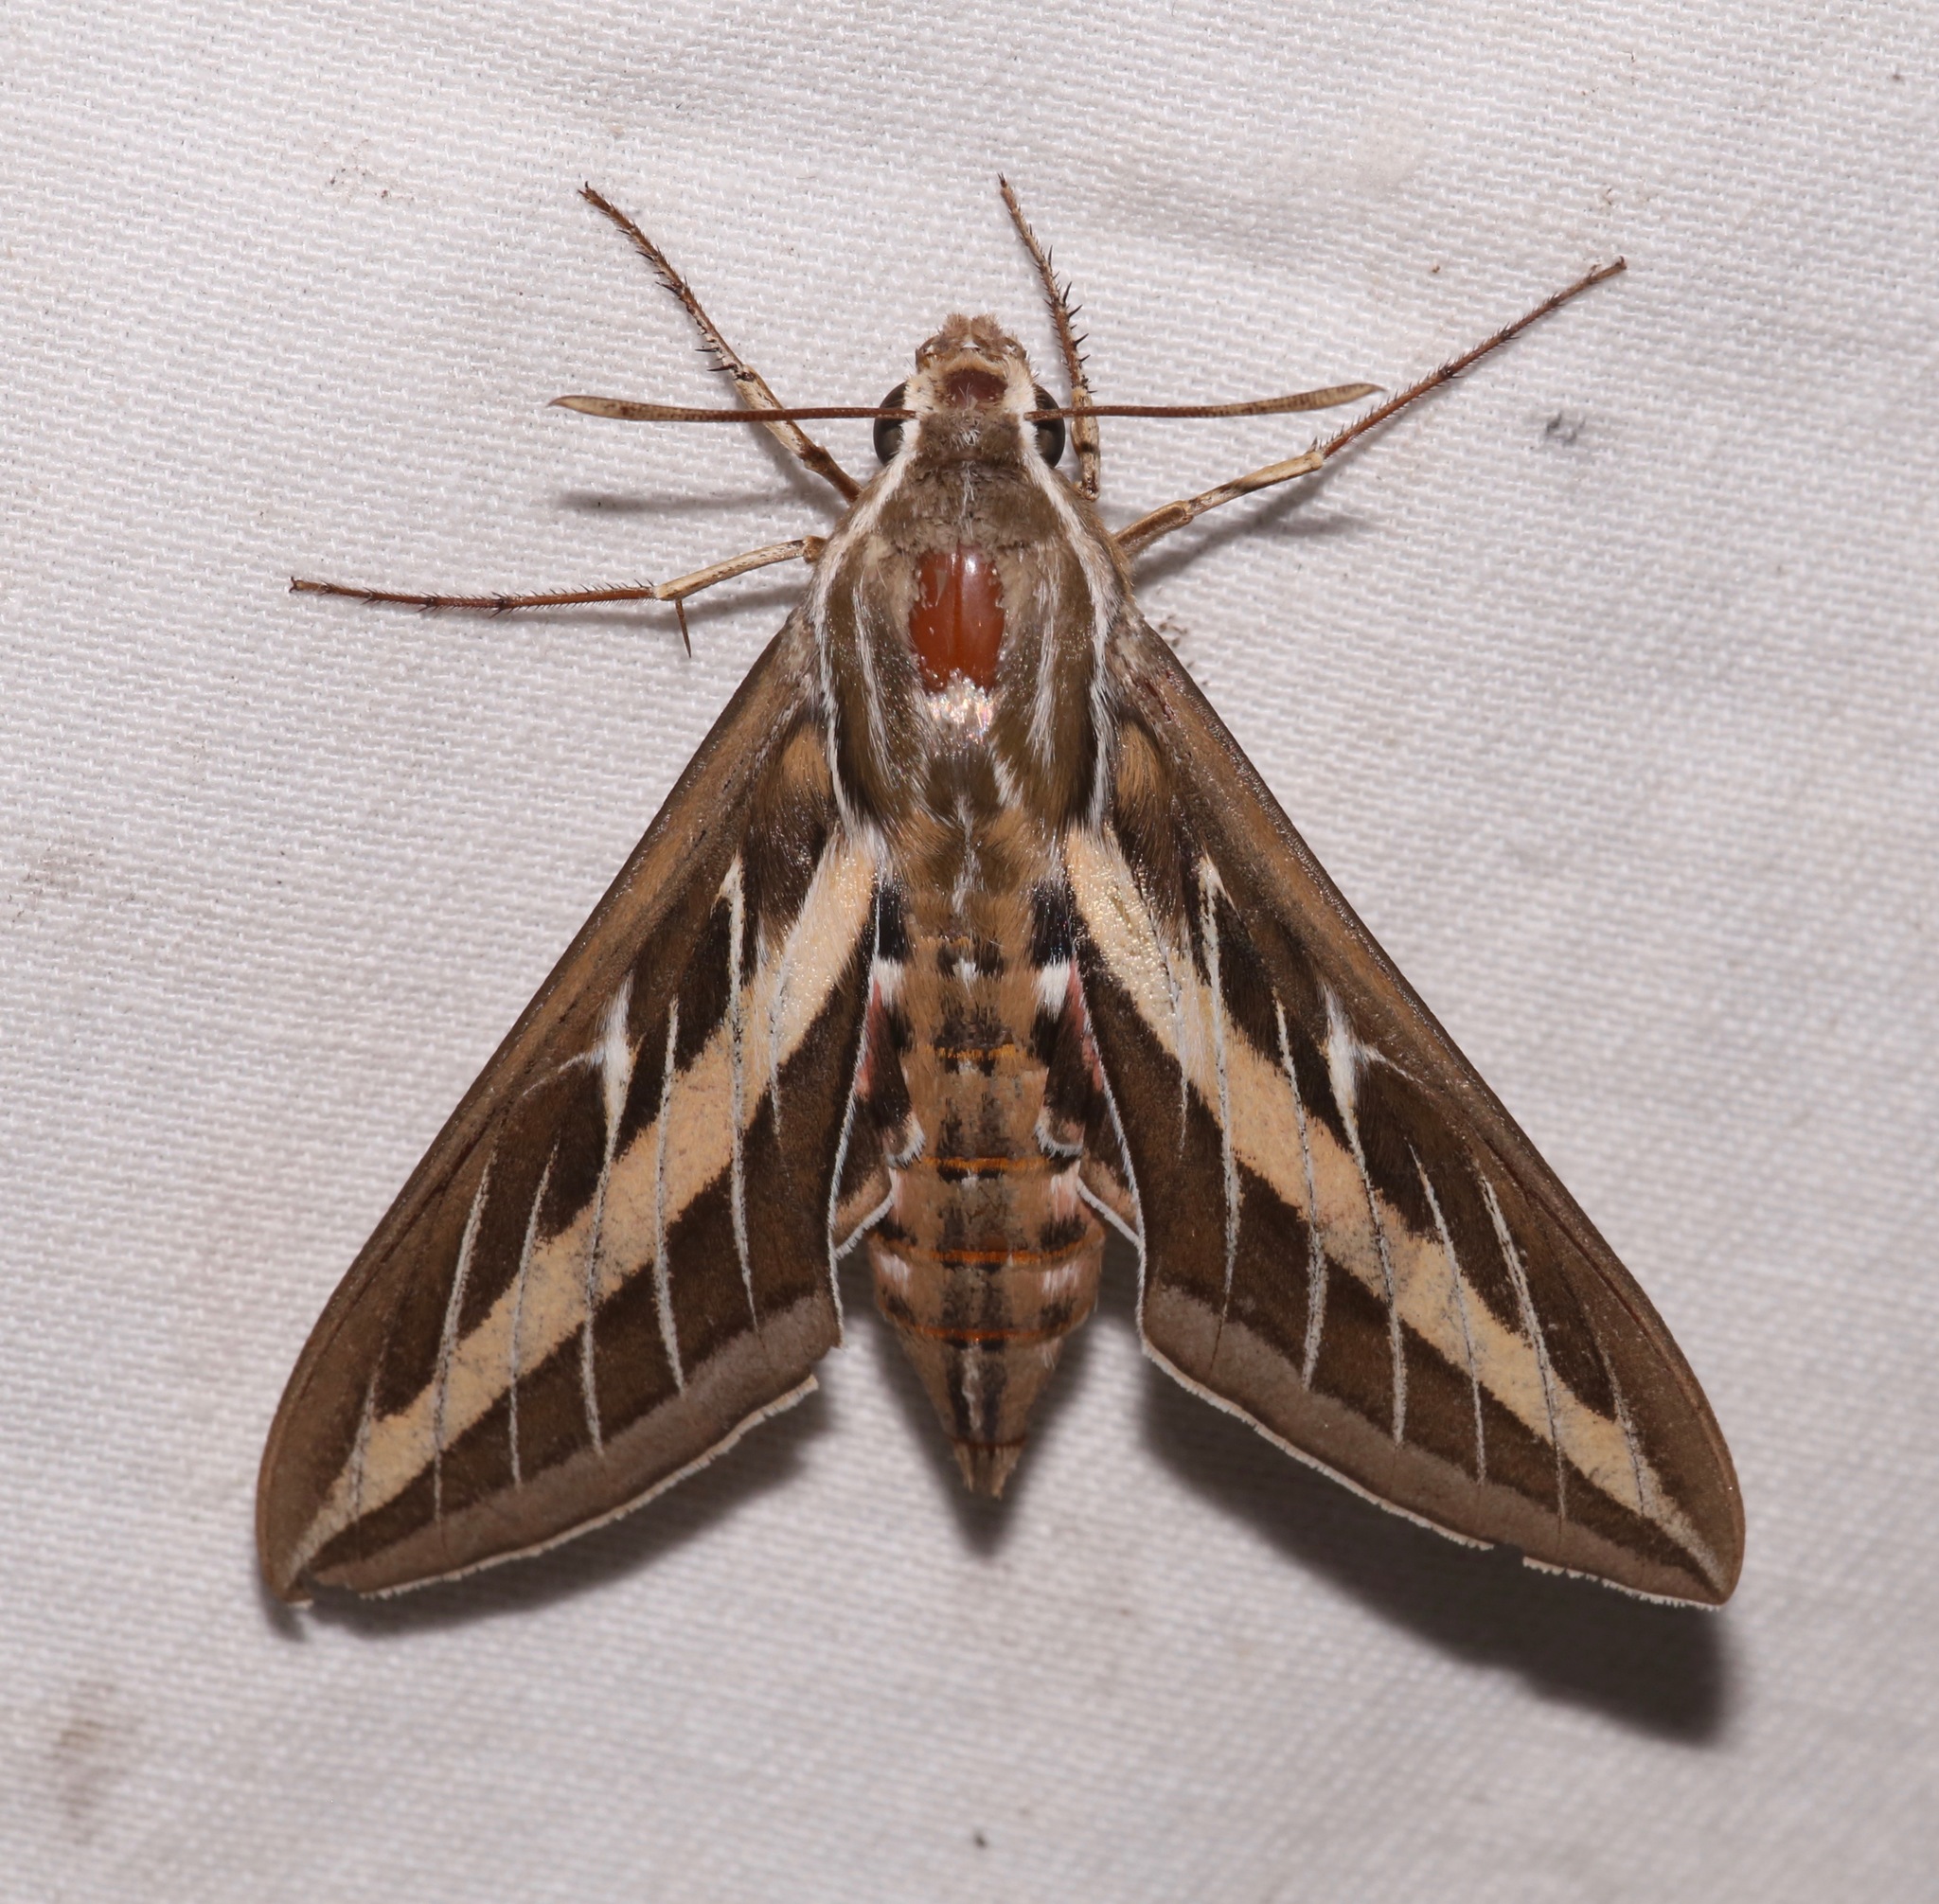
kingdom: Animalia
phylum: Arthropoda
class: Insecta
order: Lepidoptera
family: Sphingidae
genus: Hyles
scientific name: Hyles lineata
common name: White-lined sphinx
